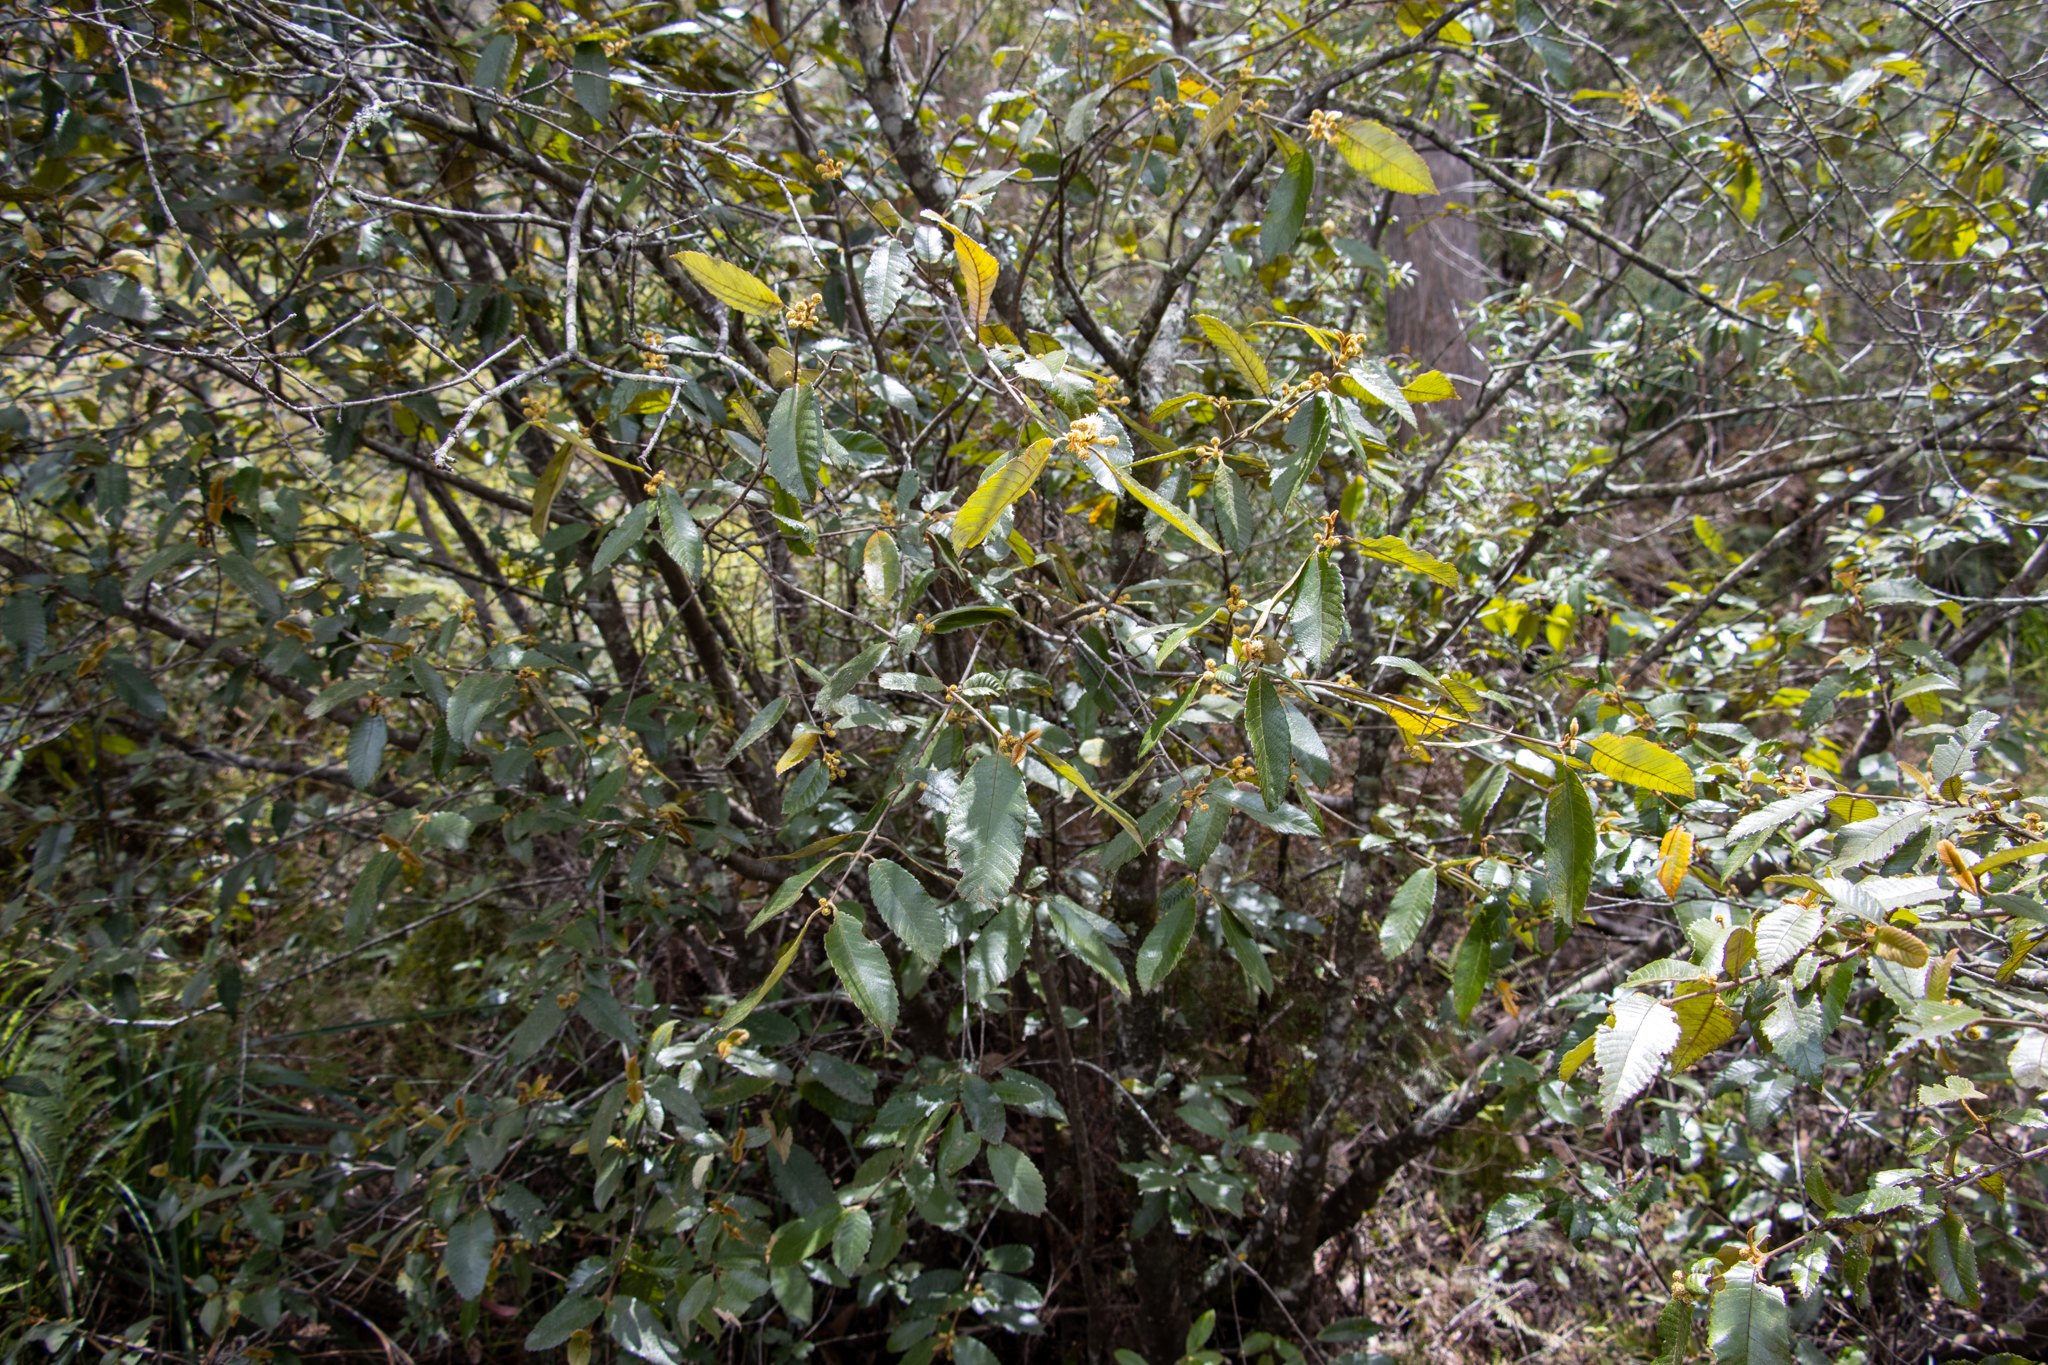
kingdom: Plantae
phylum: Tracheophyta
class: Magnoliopsida
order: Oxalidales
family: Cunoniaceae
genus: Callicoma
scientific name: Callicoma serratifolia
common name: Black wattle
